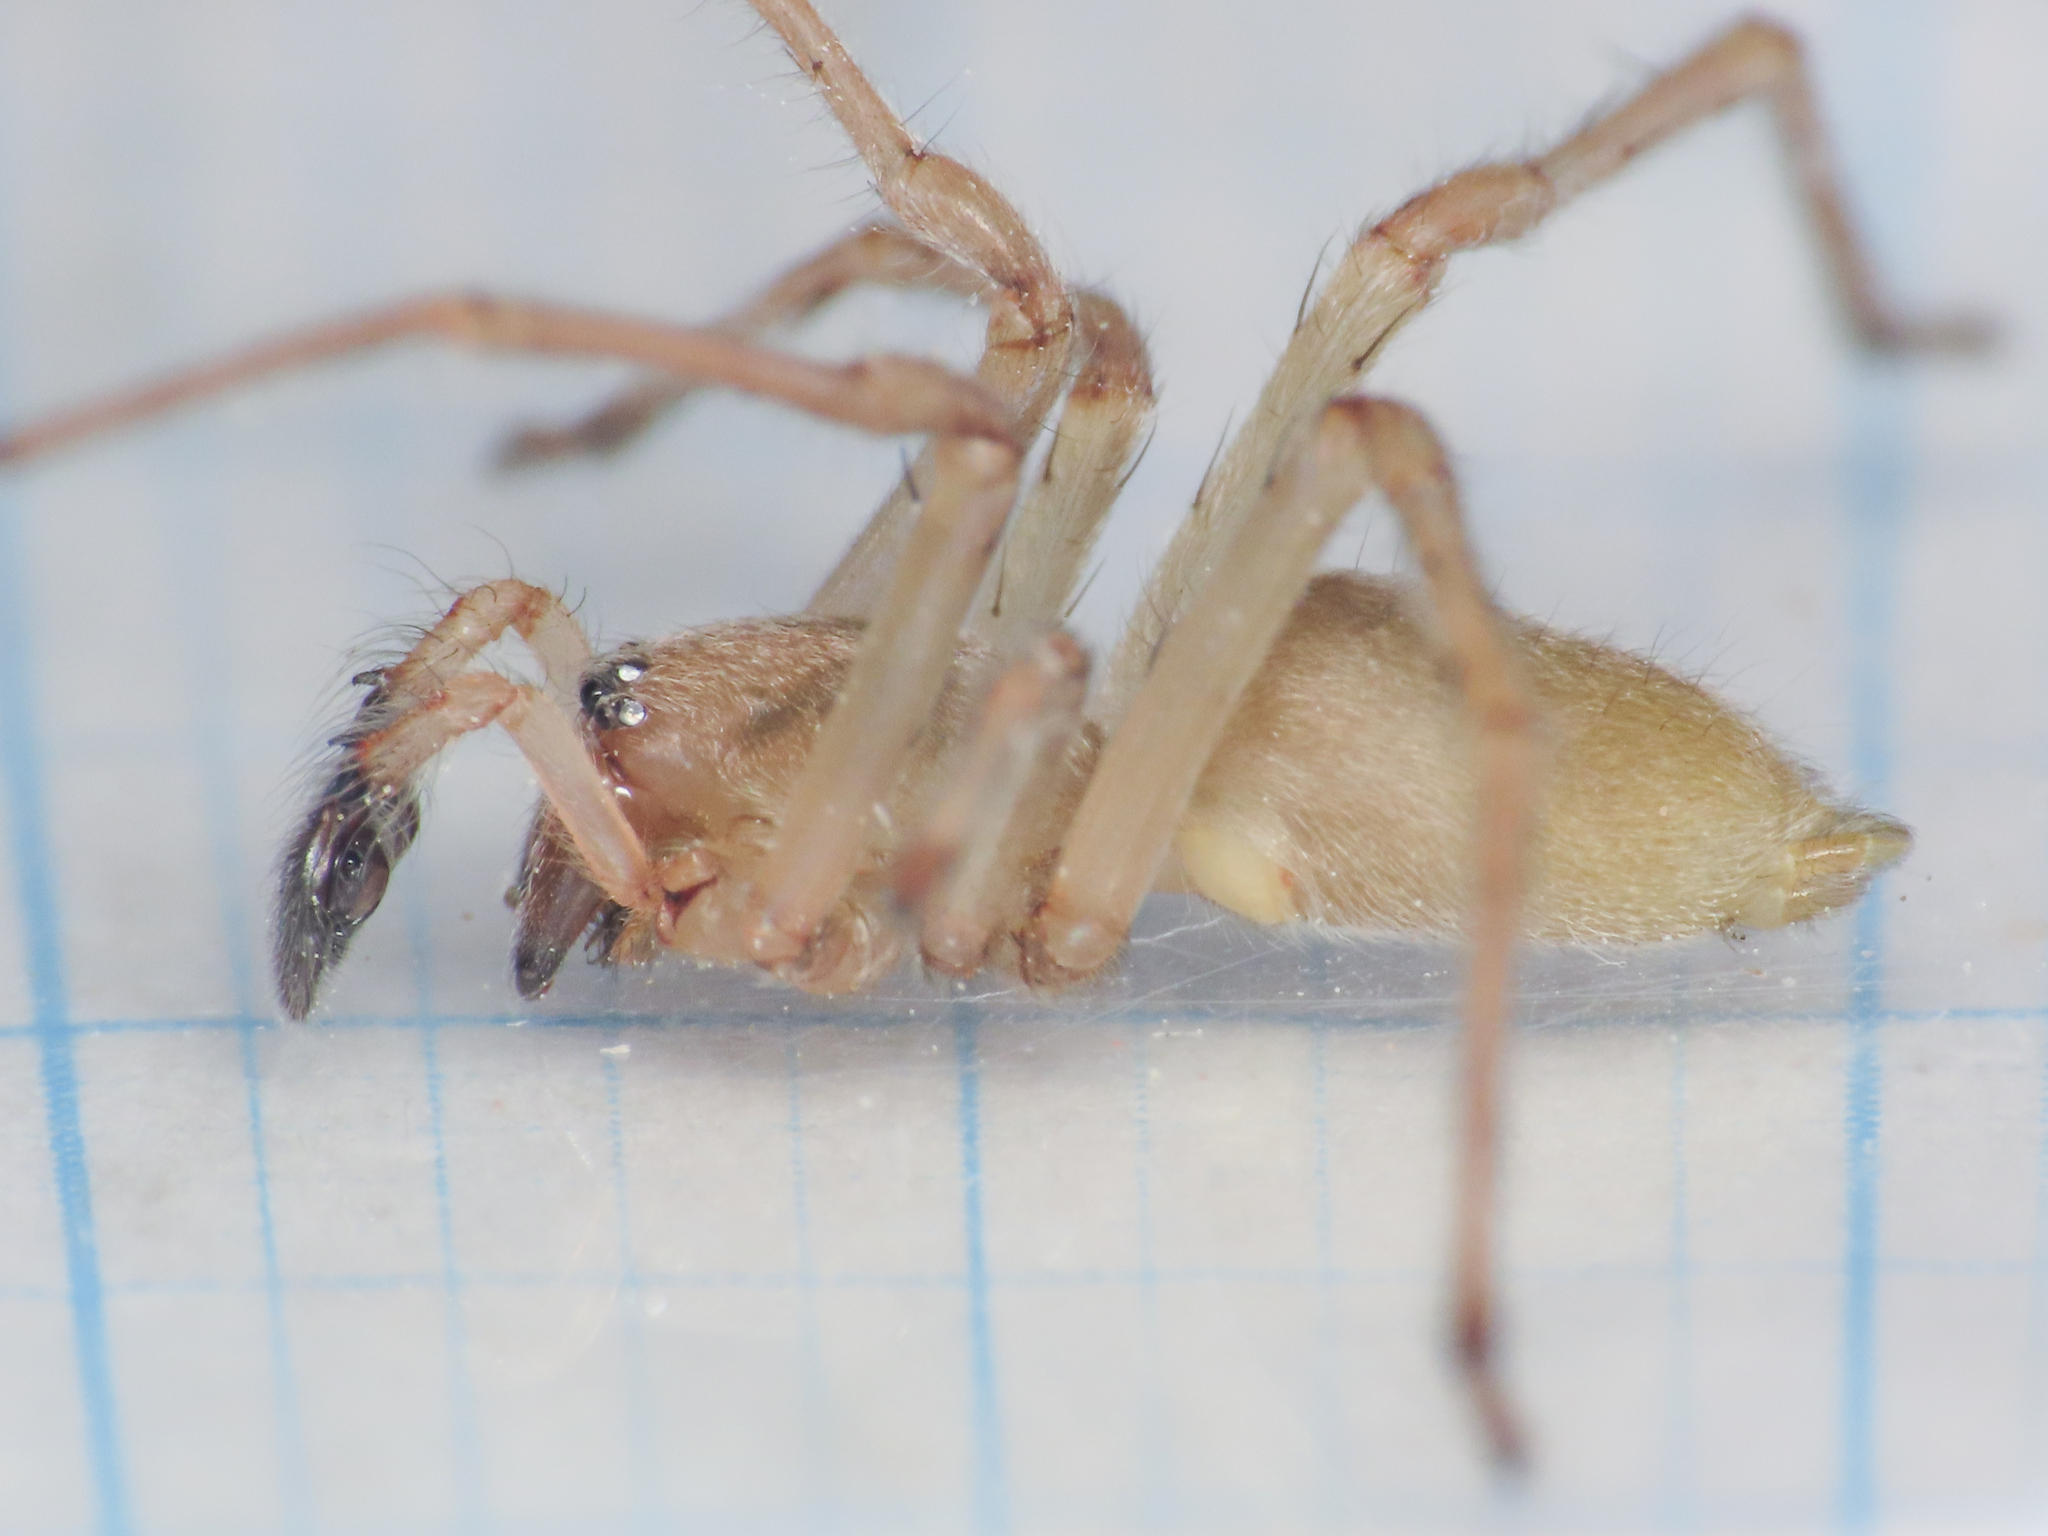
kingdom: Animalia
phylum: Arthropoda
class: Arachnida
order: Araneae
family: Cheiracanthiidae
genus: Cheiracanthium
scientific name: Cheiracanthium mildei
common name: Northern yellow sac spider
